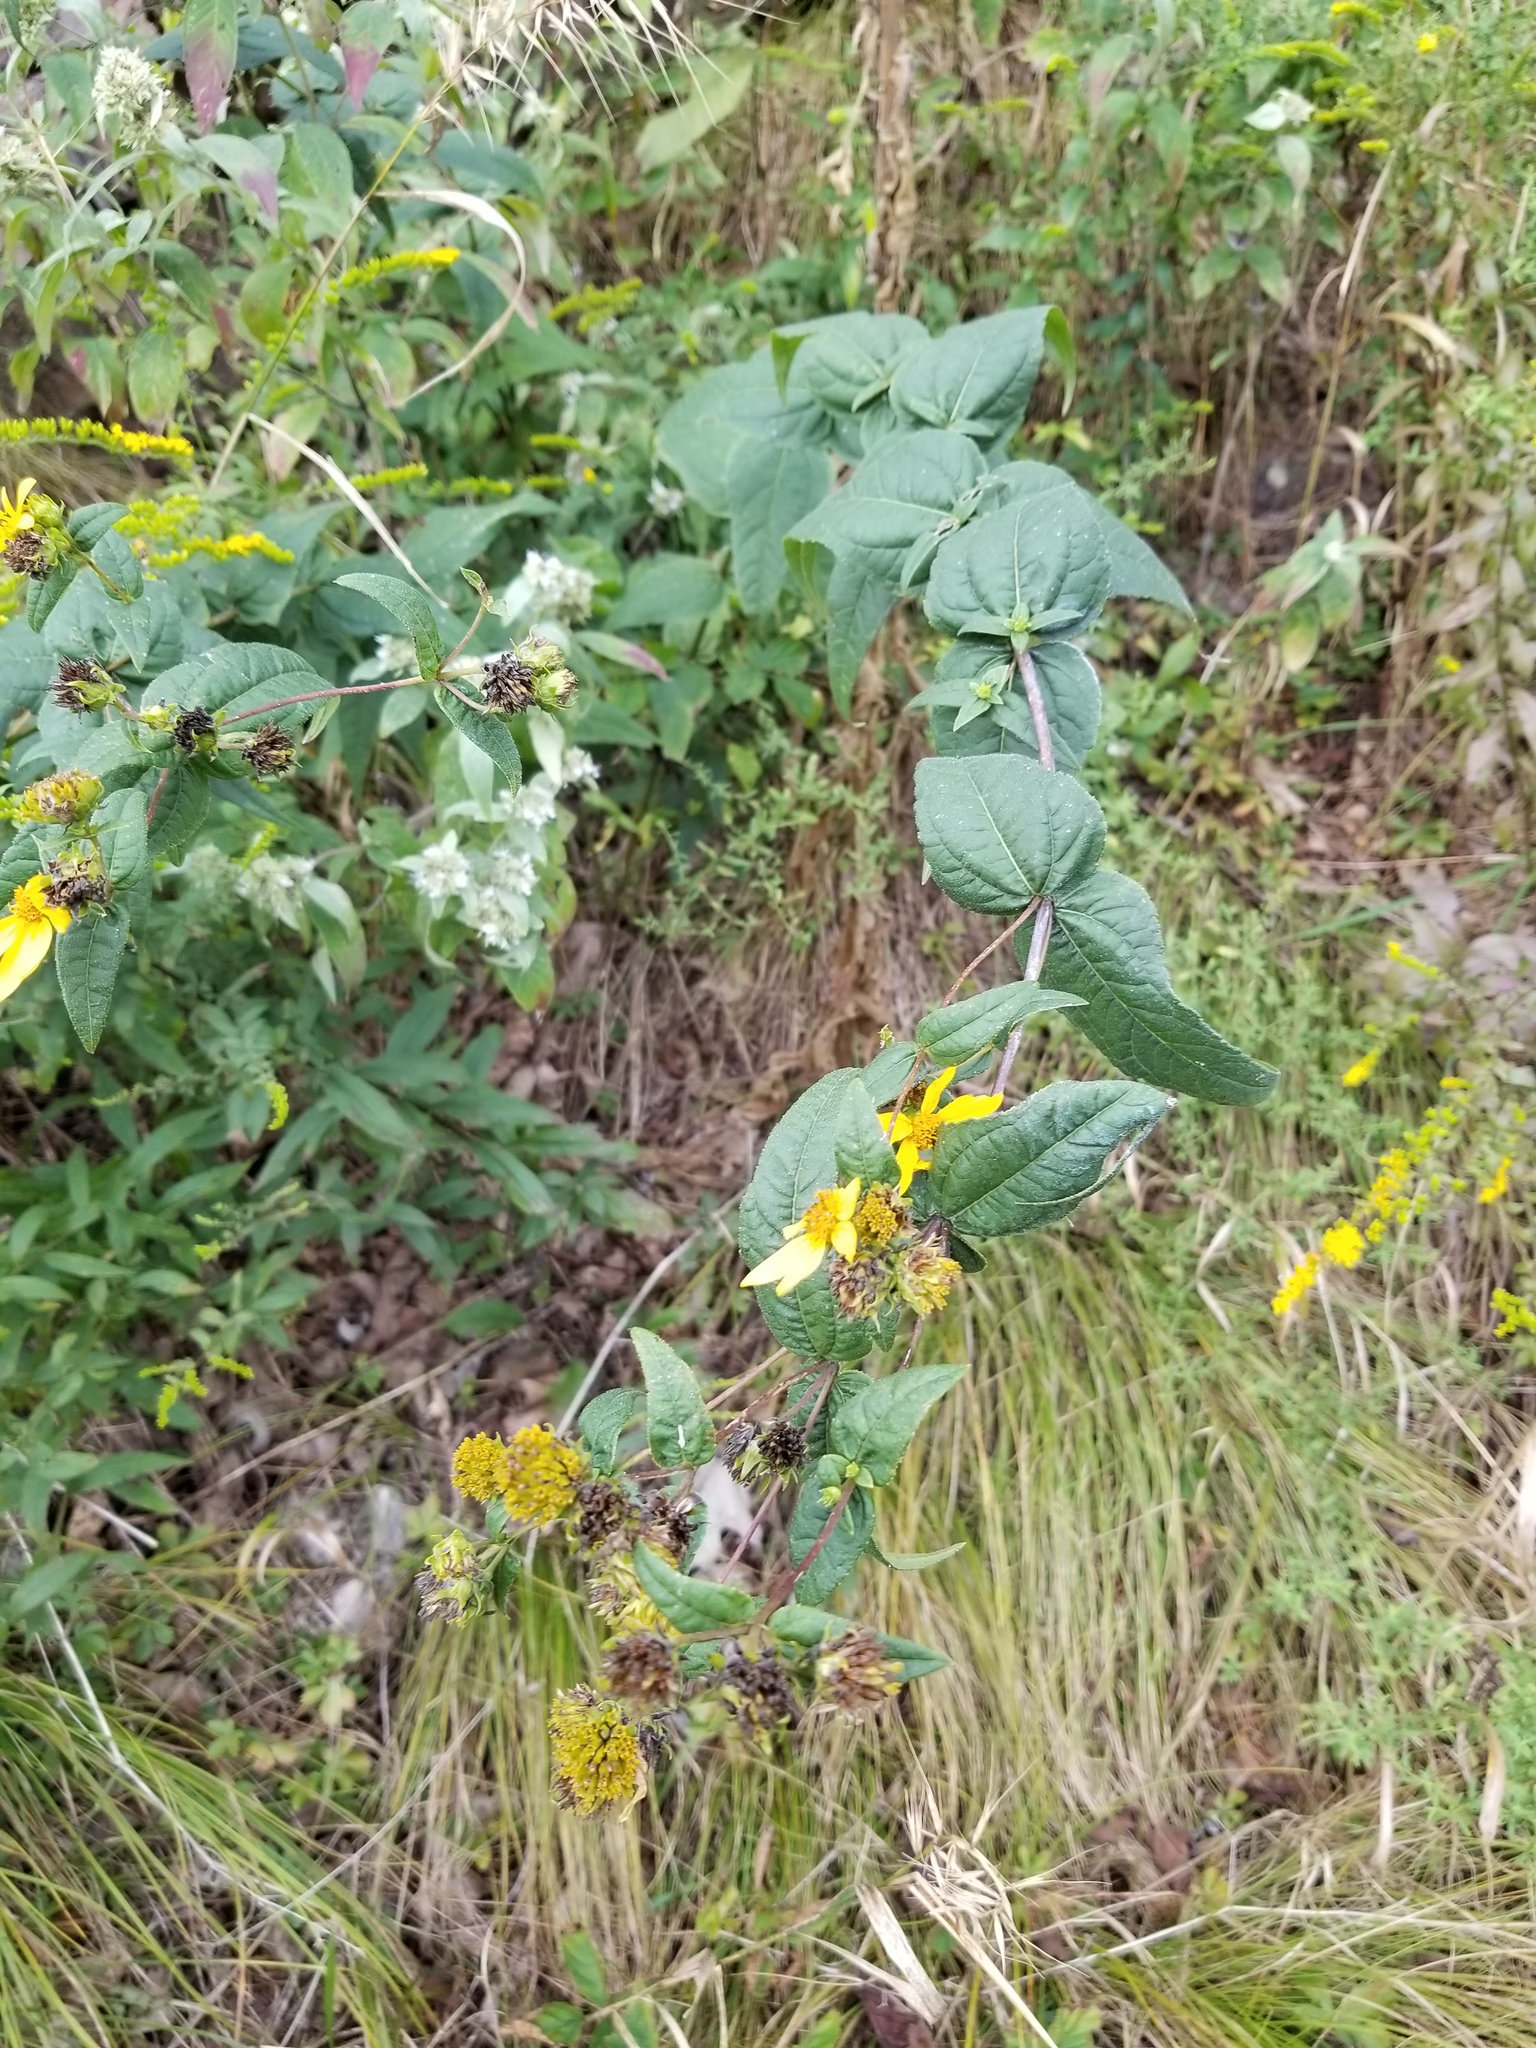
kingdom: Plantae
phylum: Tracheophyta
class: Magnoliopsida
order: Asterales
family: Asteraceae
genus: Helianthus
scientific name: Helianthus divaricatus
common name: Divergent sunflower
